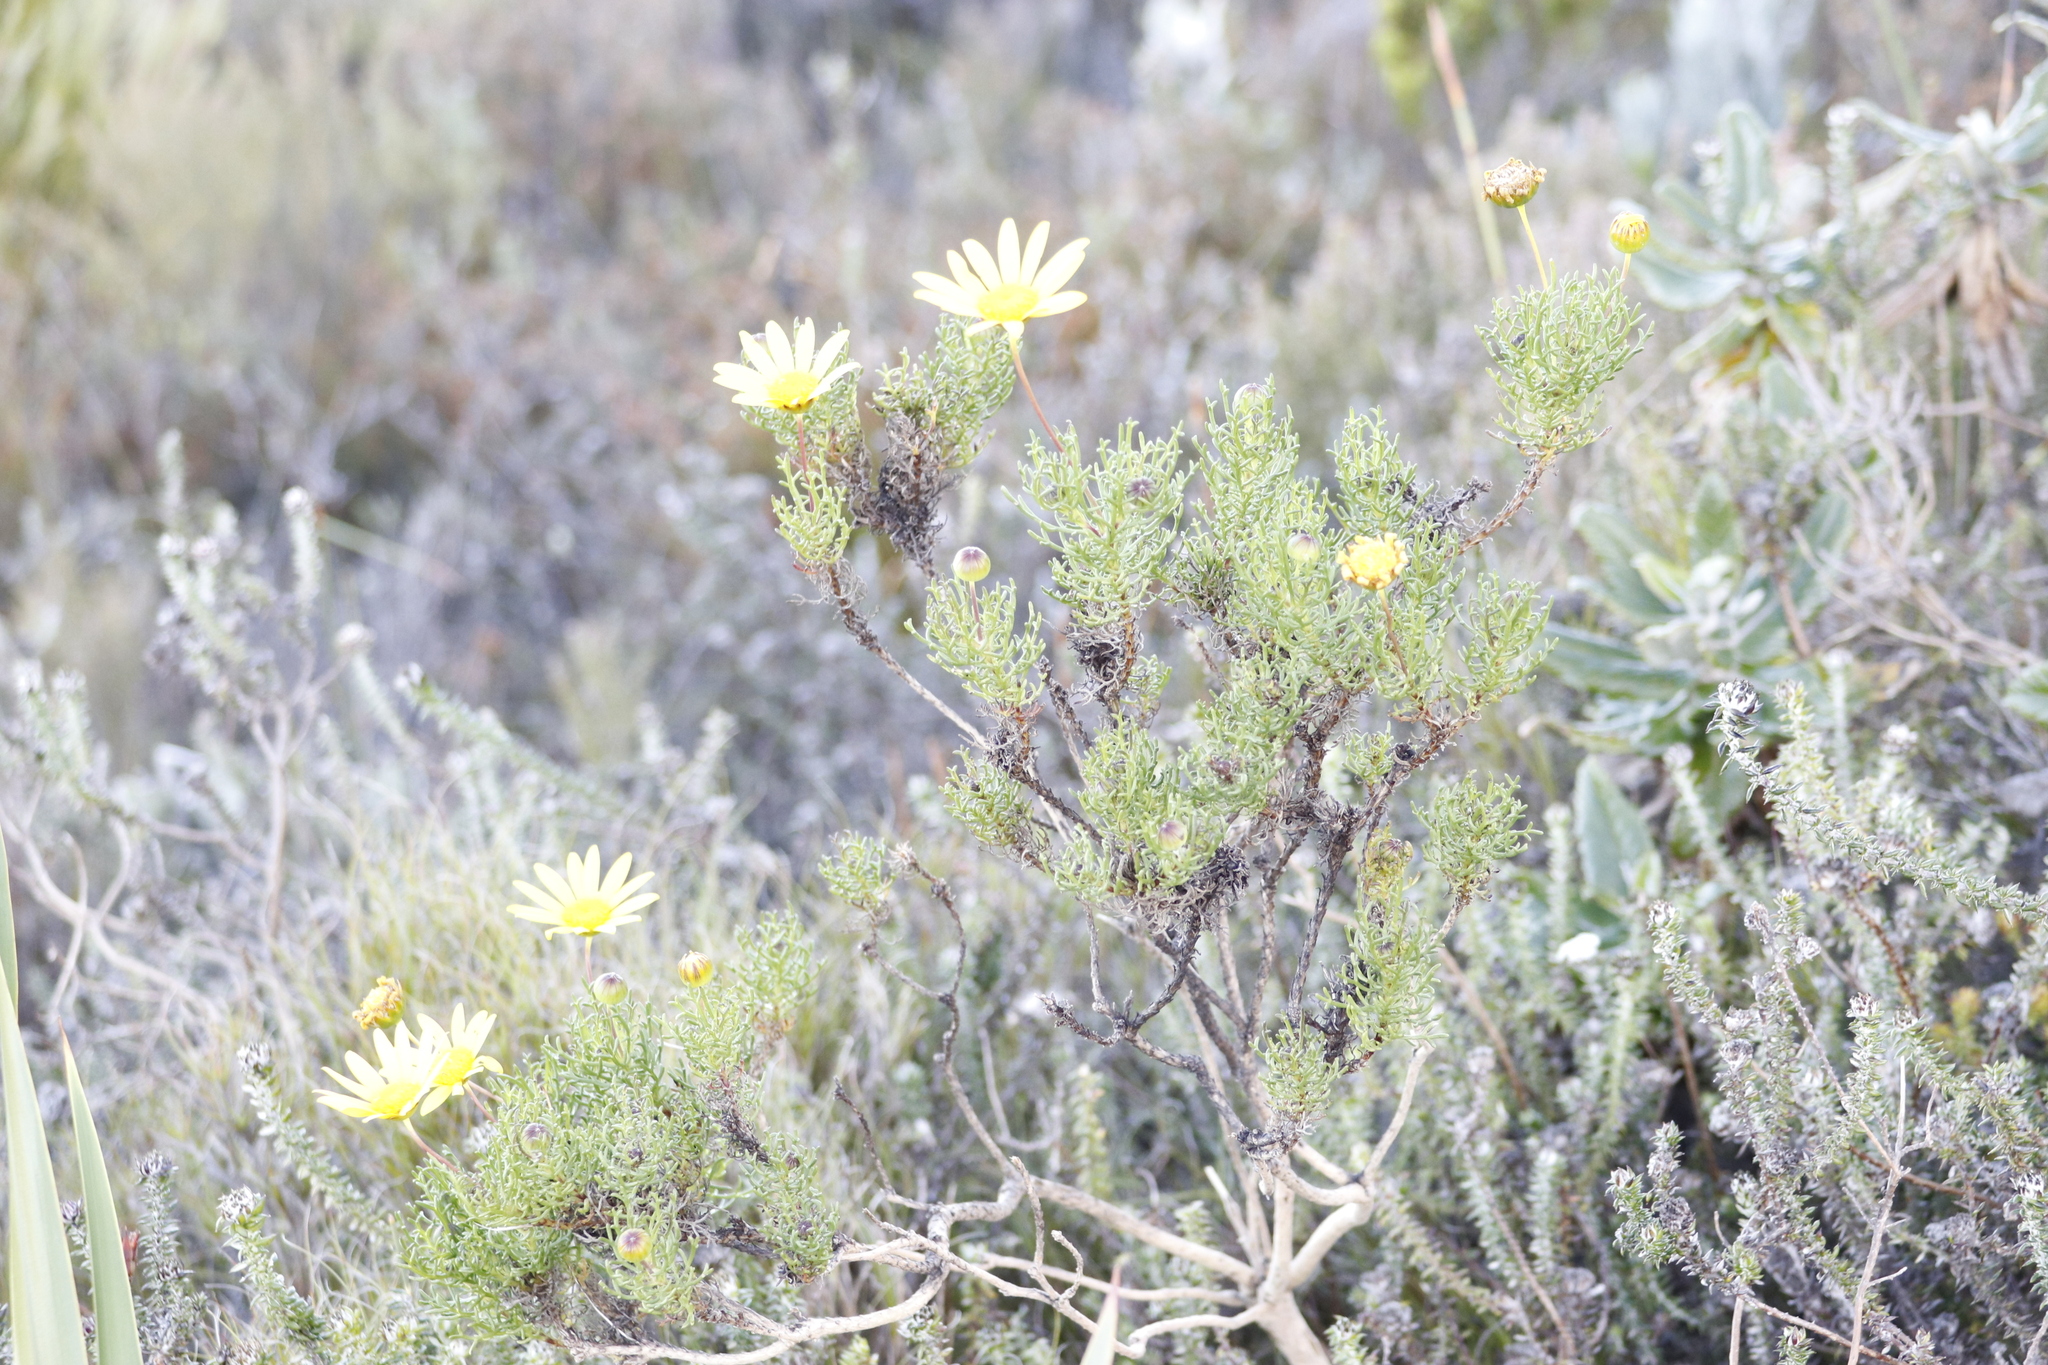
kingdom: Plantae
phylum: Tracheophyta
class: Magnoliopsida
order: Asterales
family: Asteraceae
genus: Euryops
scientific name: Euryops abrotanifolius
